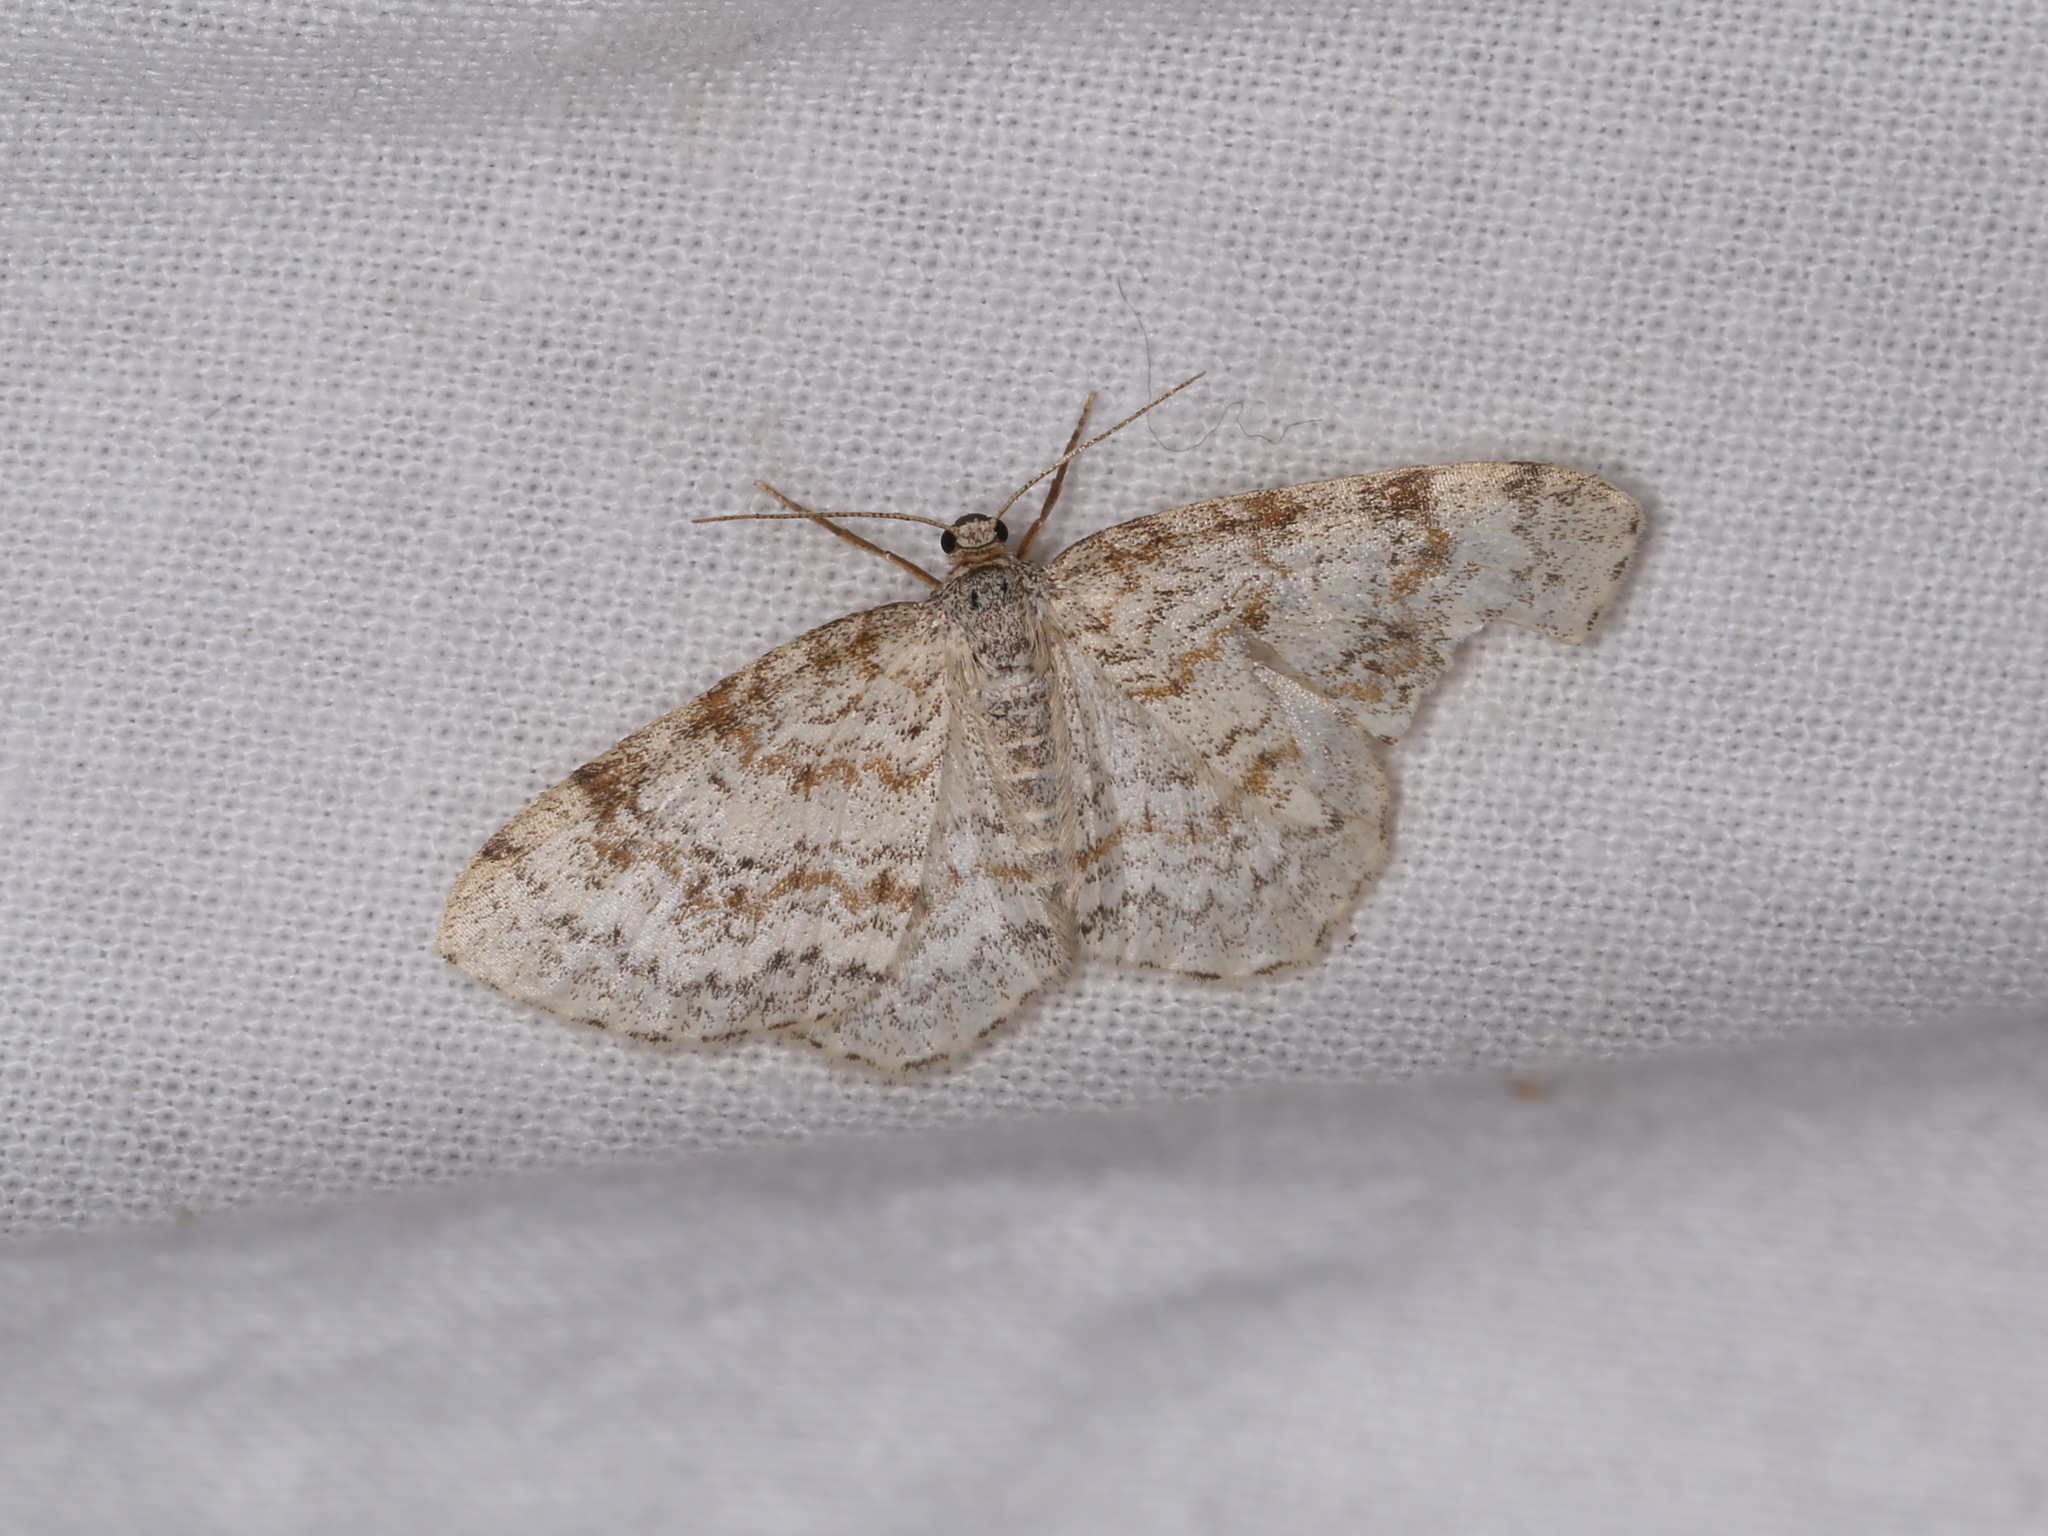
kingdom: Animalia
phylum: Arthropoda
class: Insecta
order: Lepidoptera
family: Geometridae
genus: Hydrelia
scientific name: Hydrelia sylvata
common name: Waved carpet
